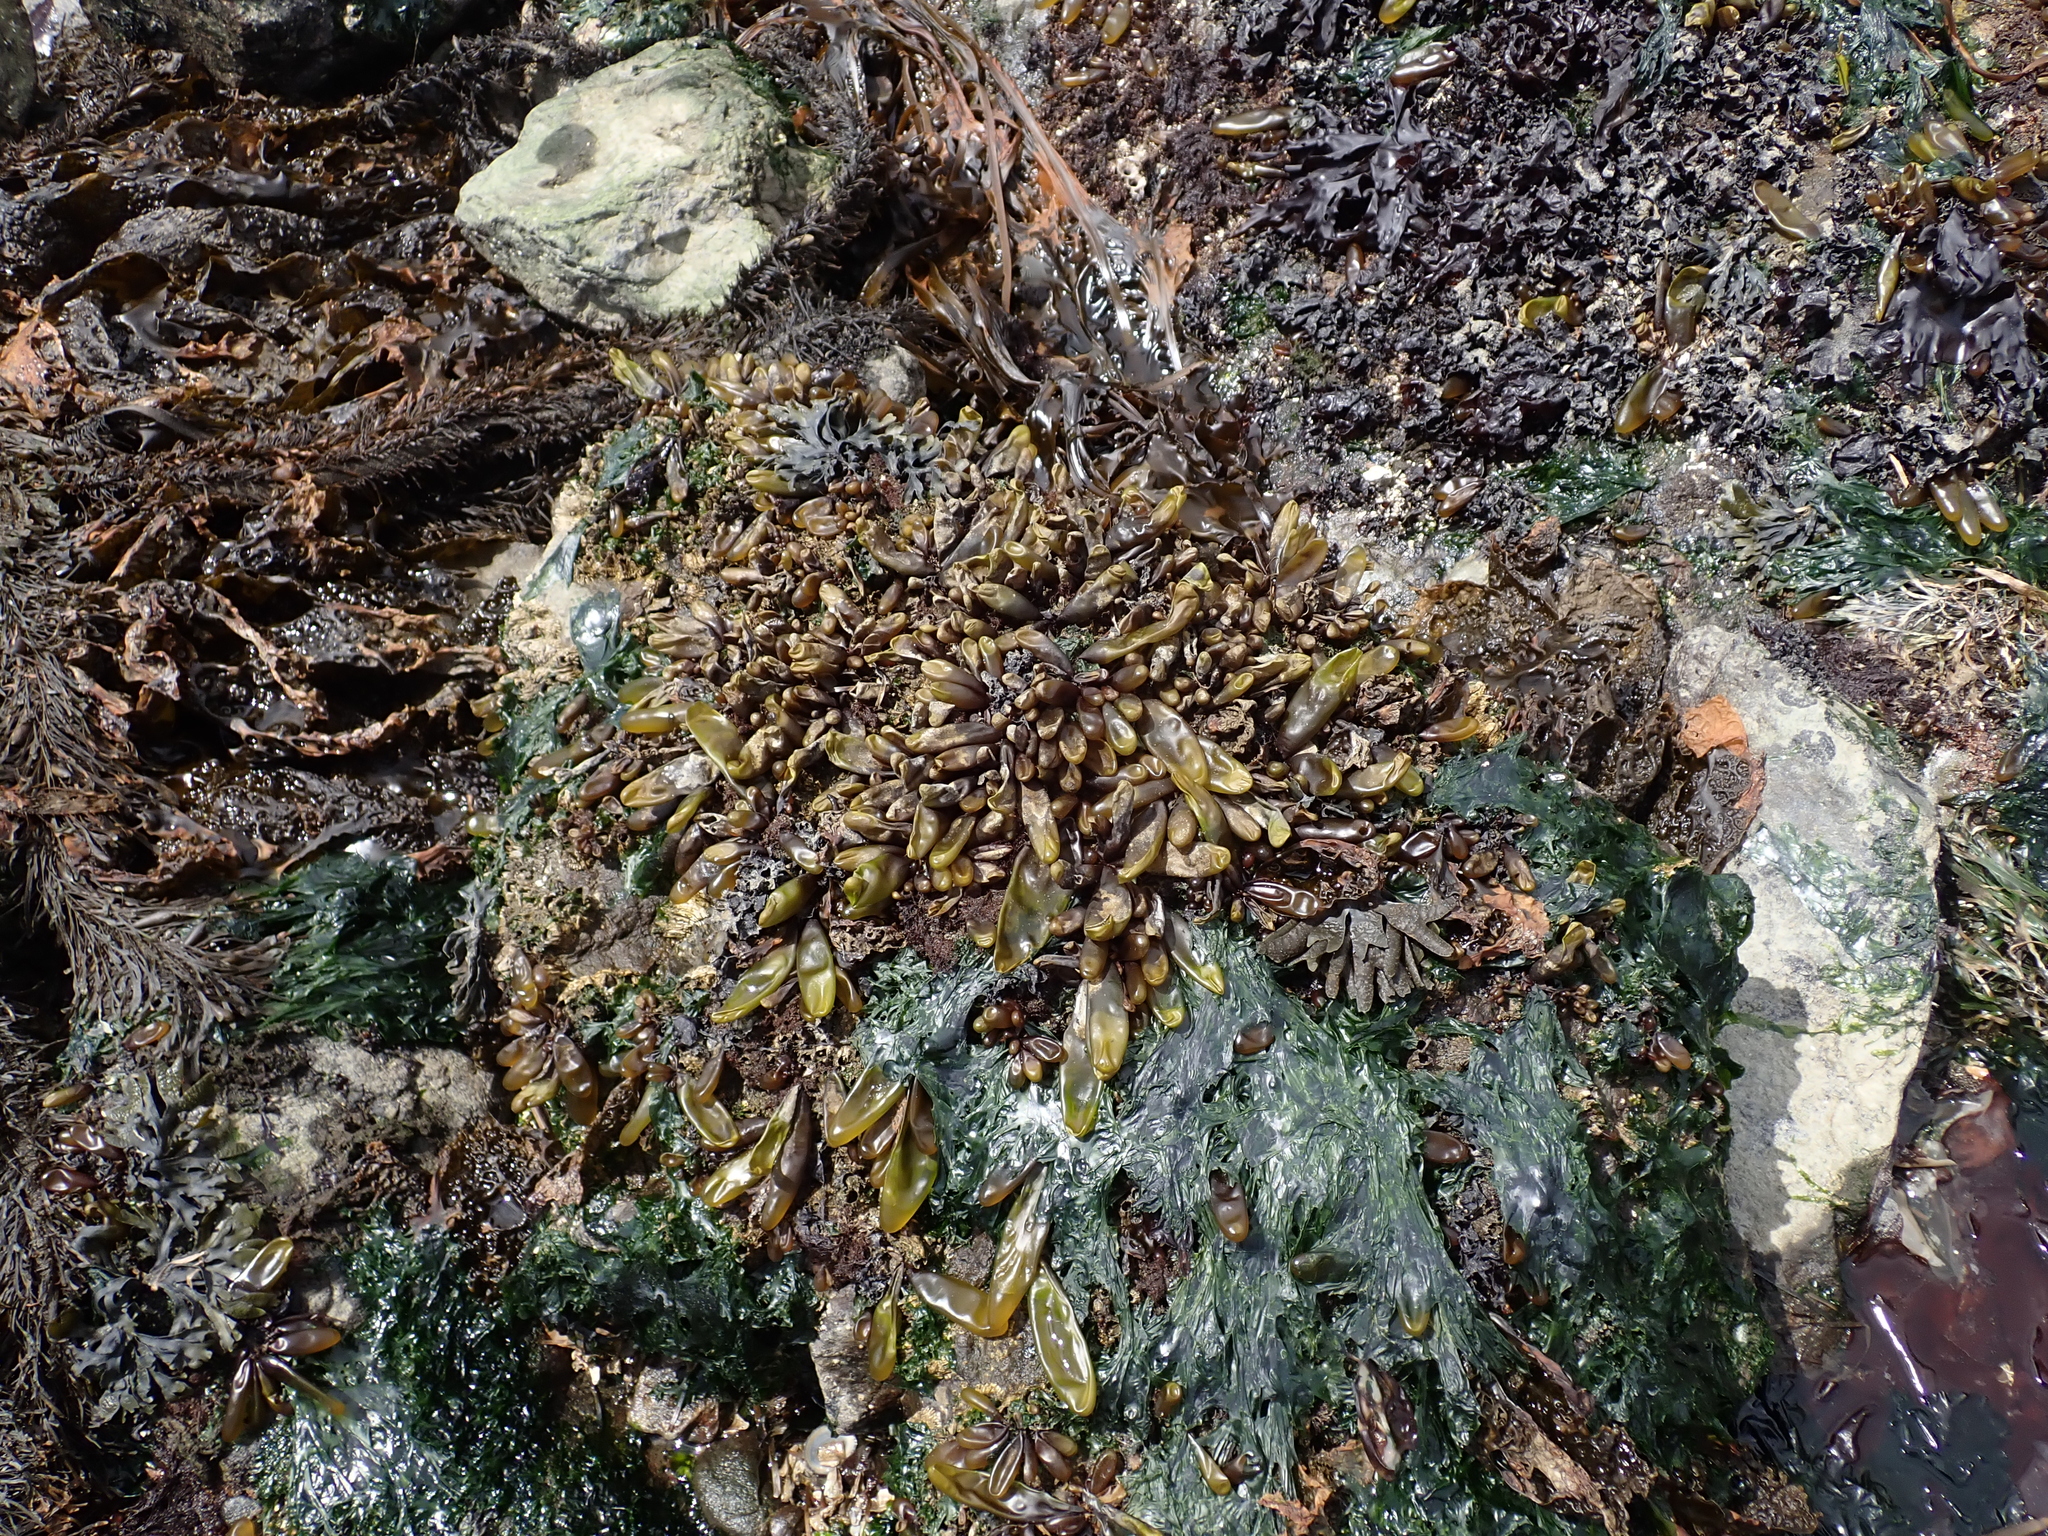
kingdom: Plantae
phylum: Rhodophyta
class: Florideophyceae
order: Palmariales
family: Palmariaceae
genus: Halosaccion
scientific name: Halosaccion glandiforme
